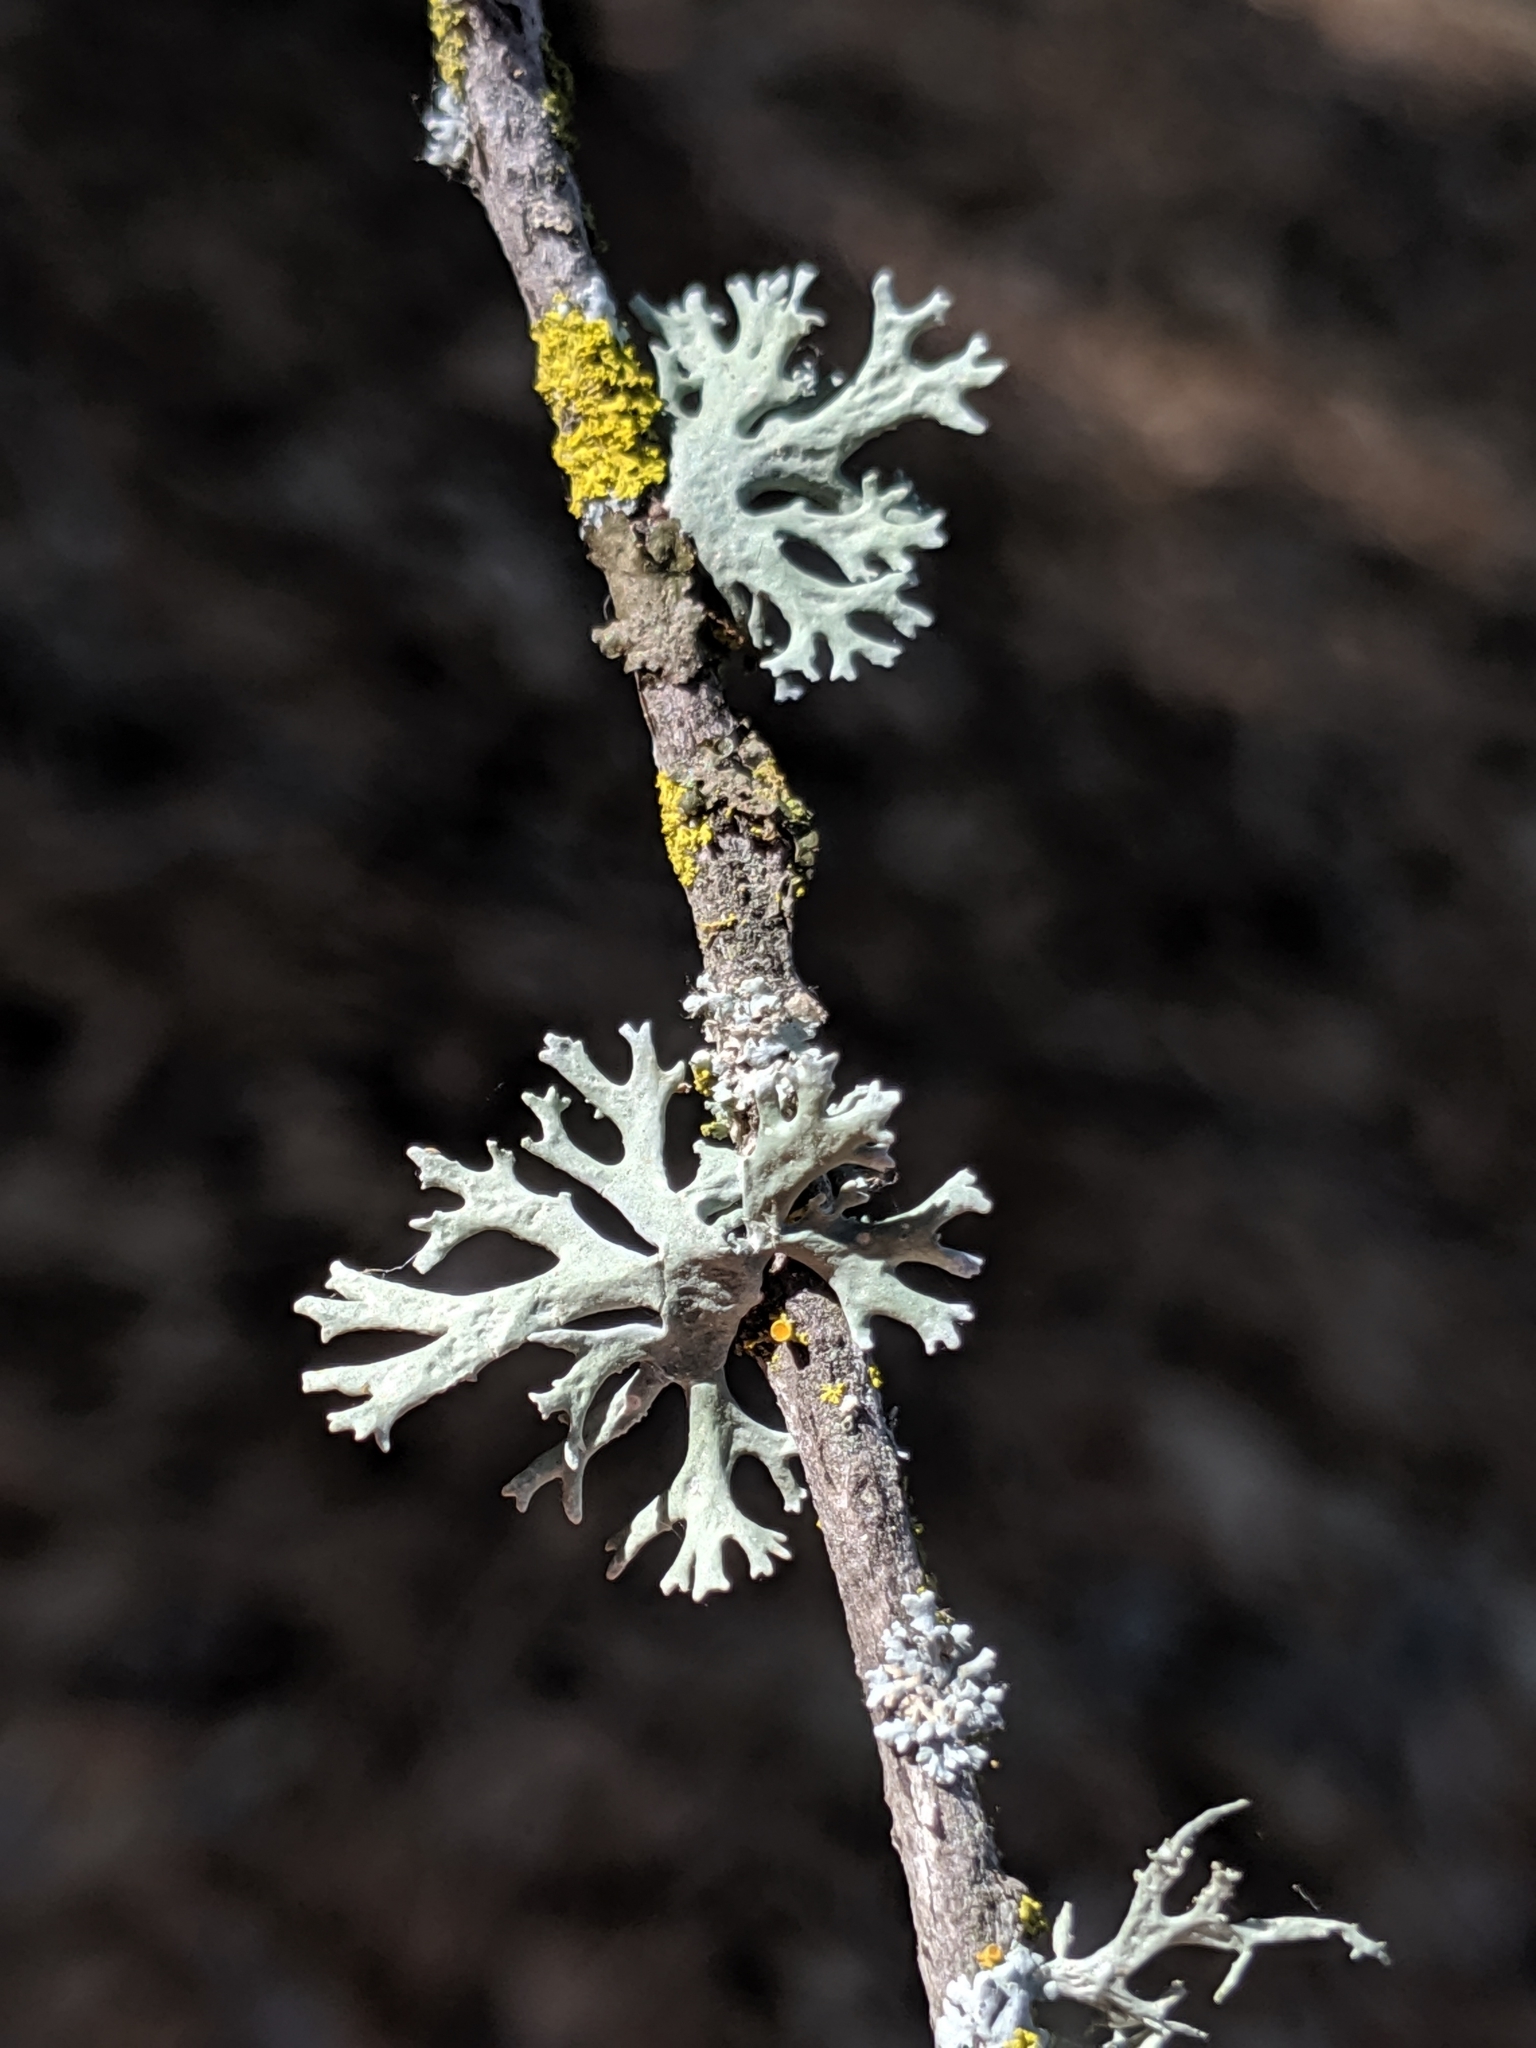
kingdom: Fungi
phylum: Ascomycota
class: Lecanoromycetes
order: Lecanorales
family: Parmeliaceae
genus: Evernia
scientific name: Evernia prunastri
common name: Oak moss
